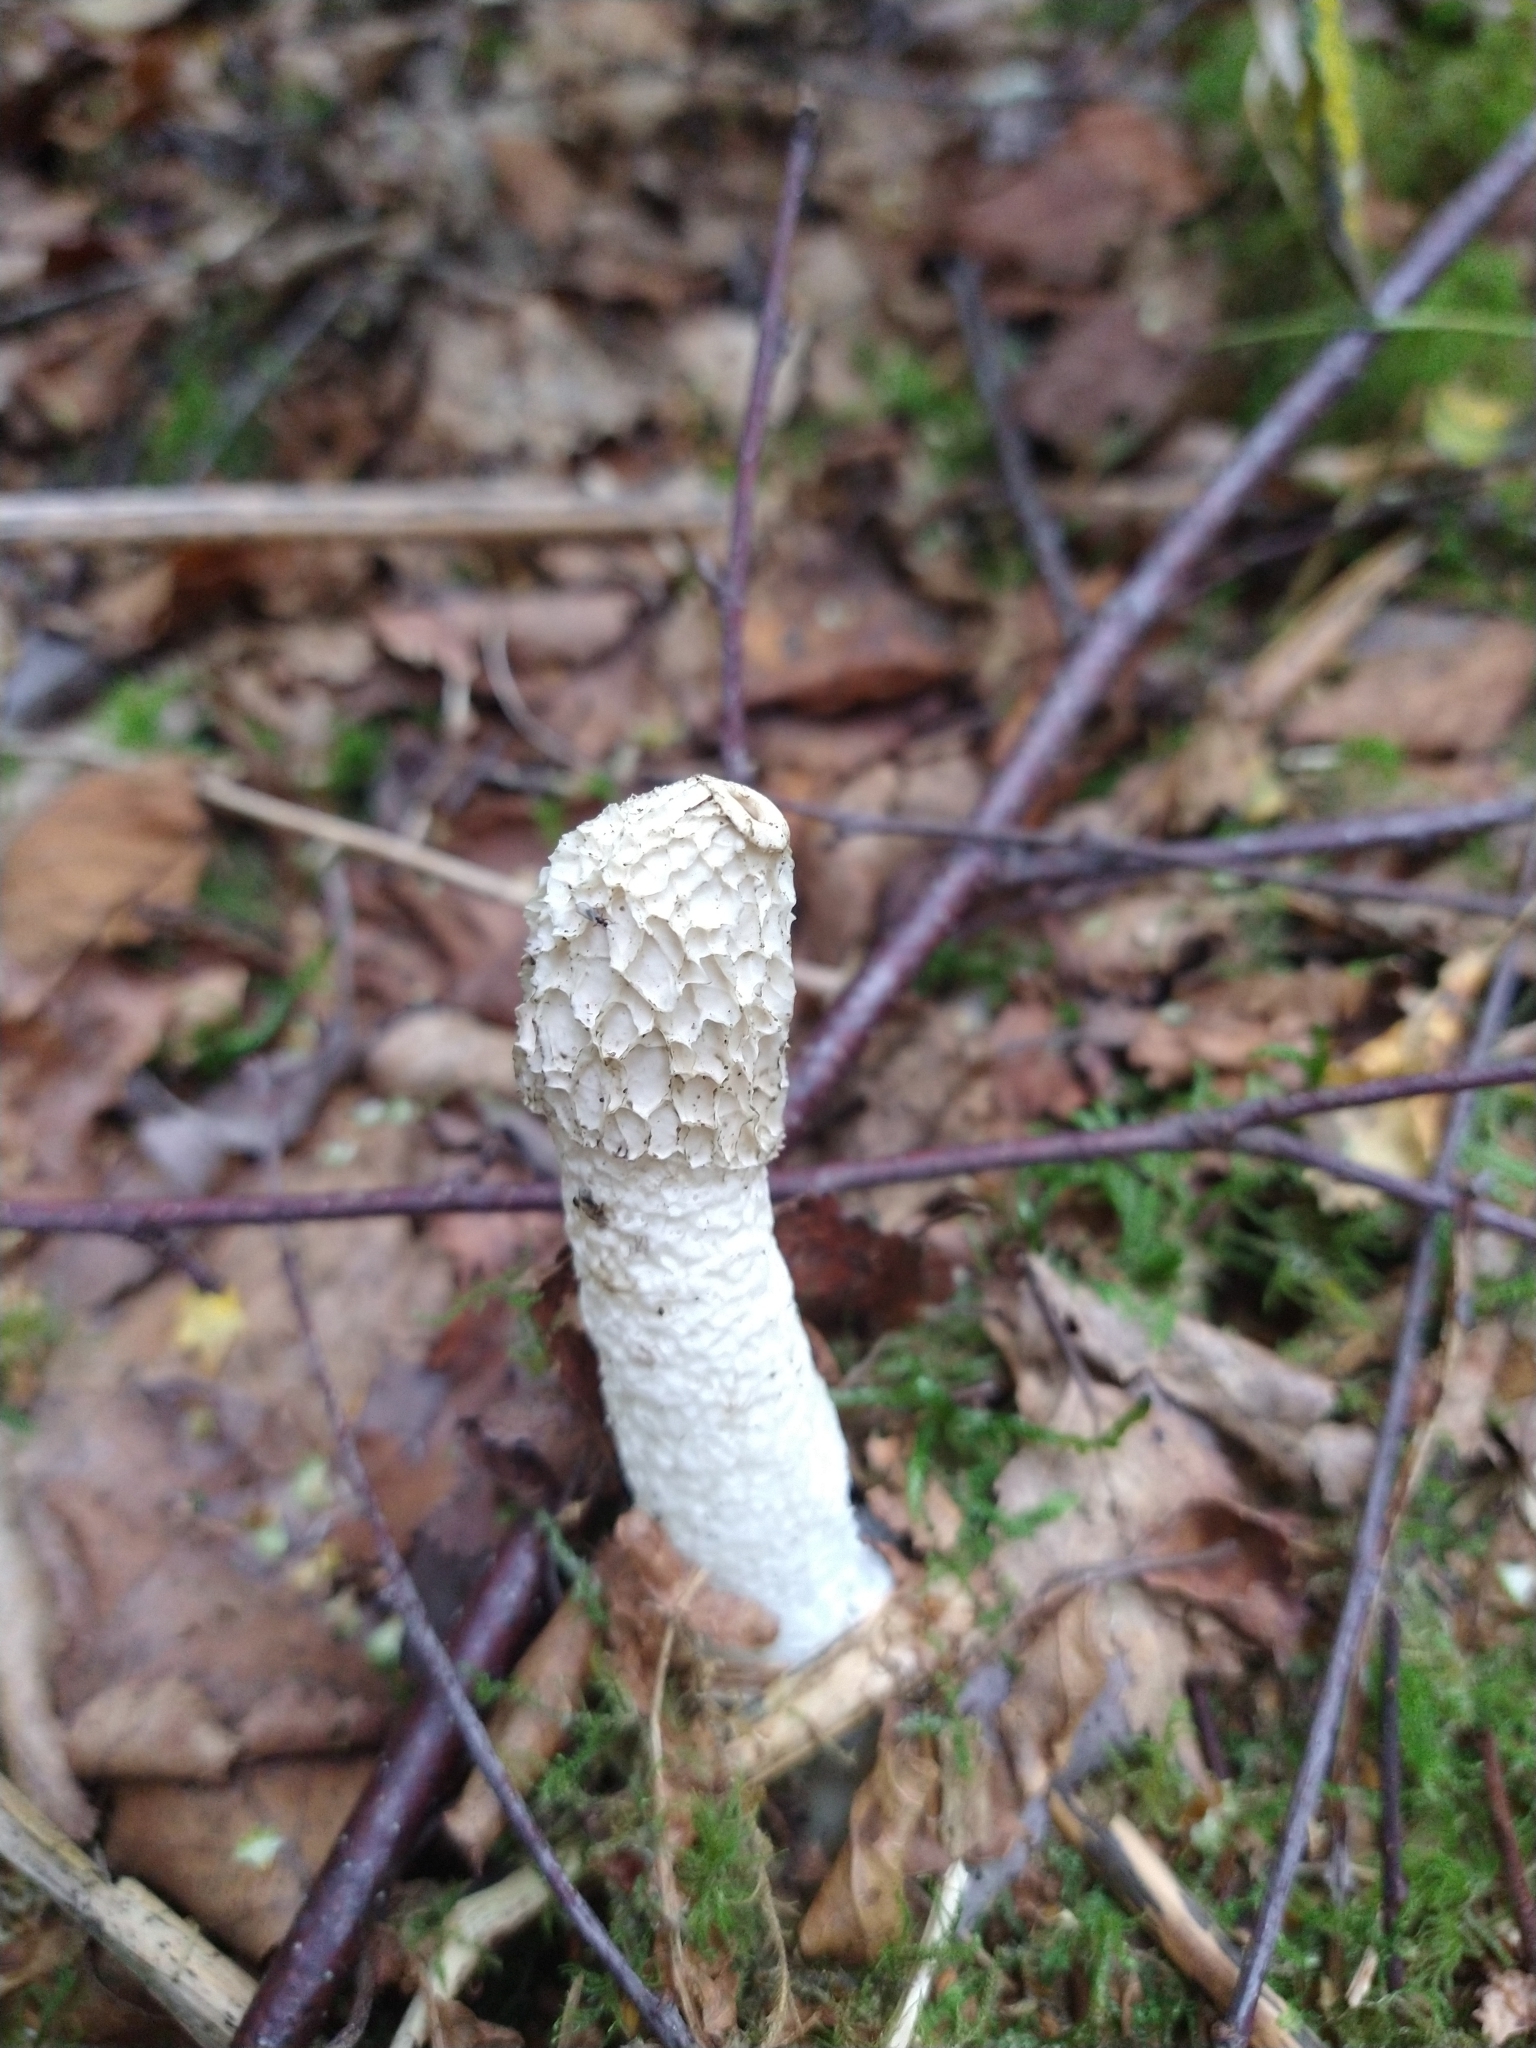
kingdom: Fungi
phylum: Basidiomycota
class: Agaricomycetes
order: Phallales
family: Phallaceae
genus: Phallus
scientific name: Phallus impudicus
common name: Common stinkhorn
